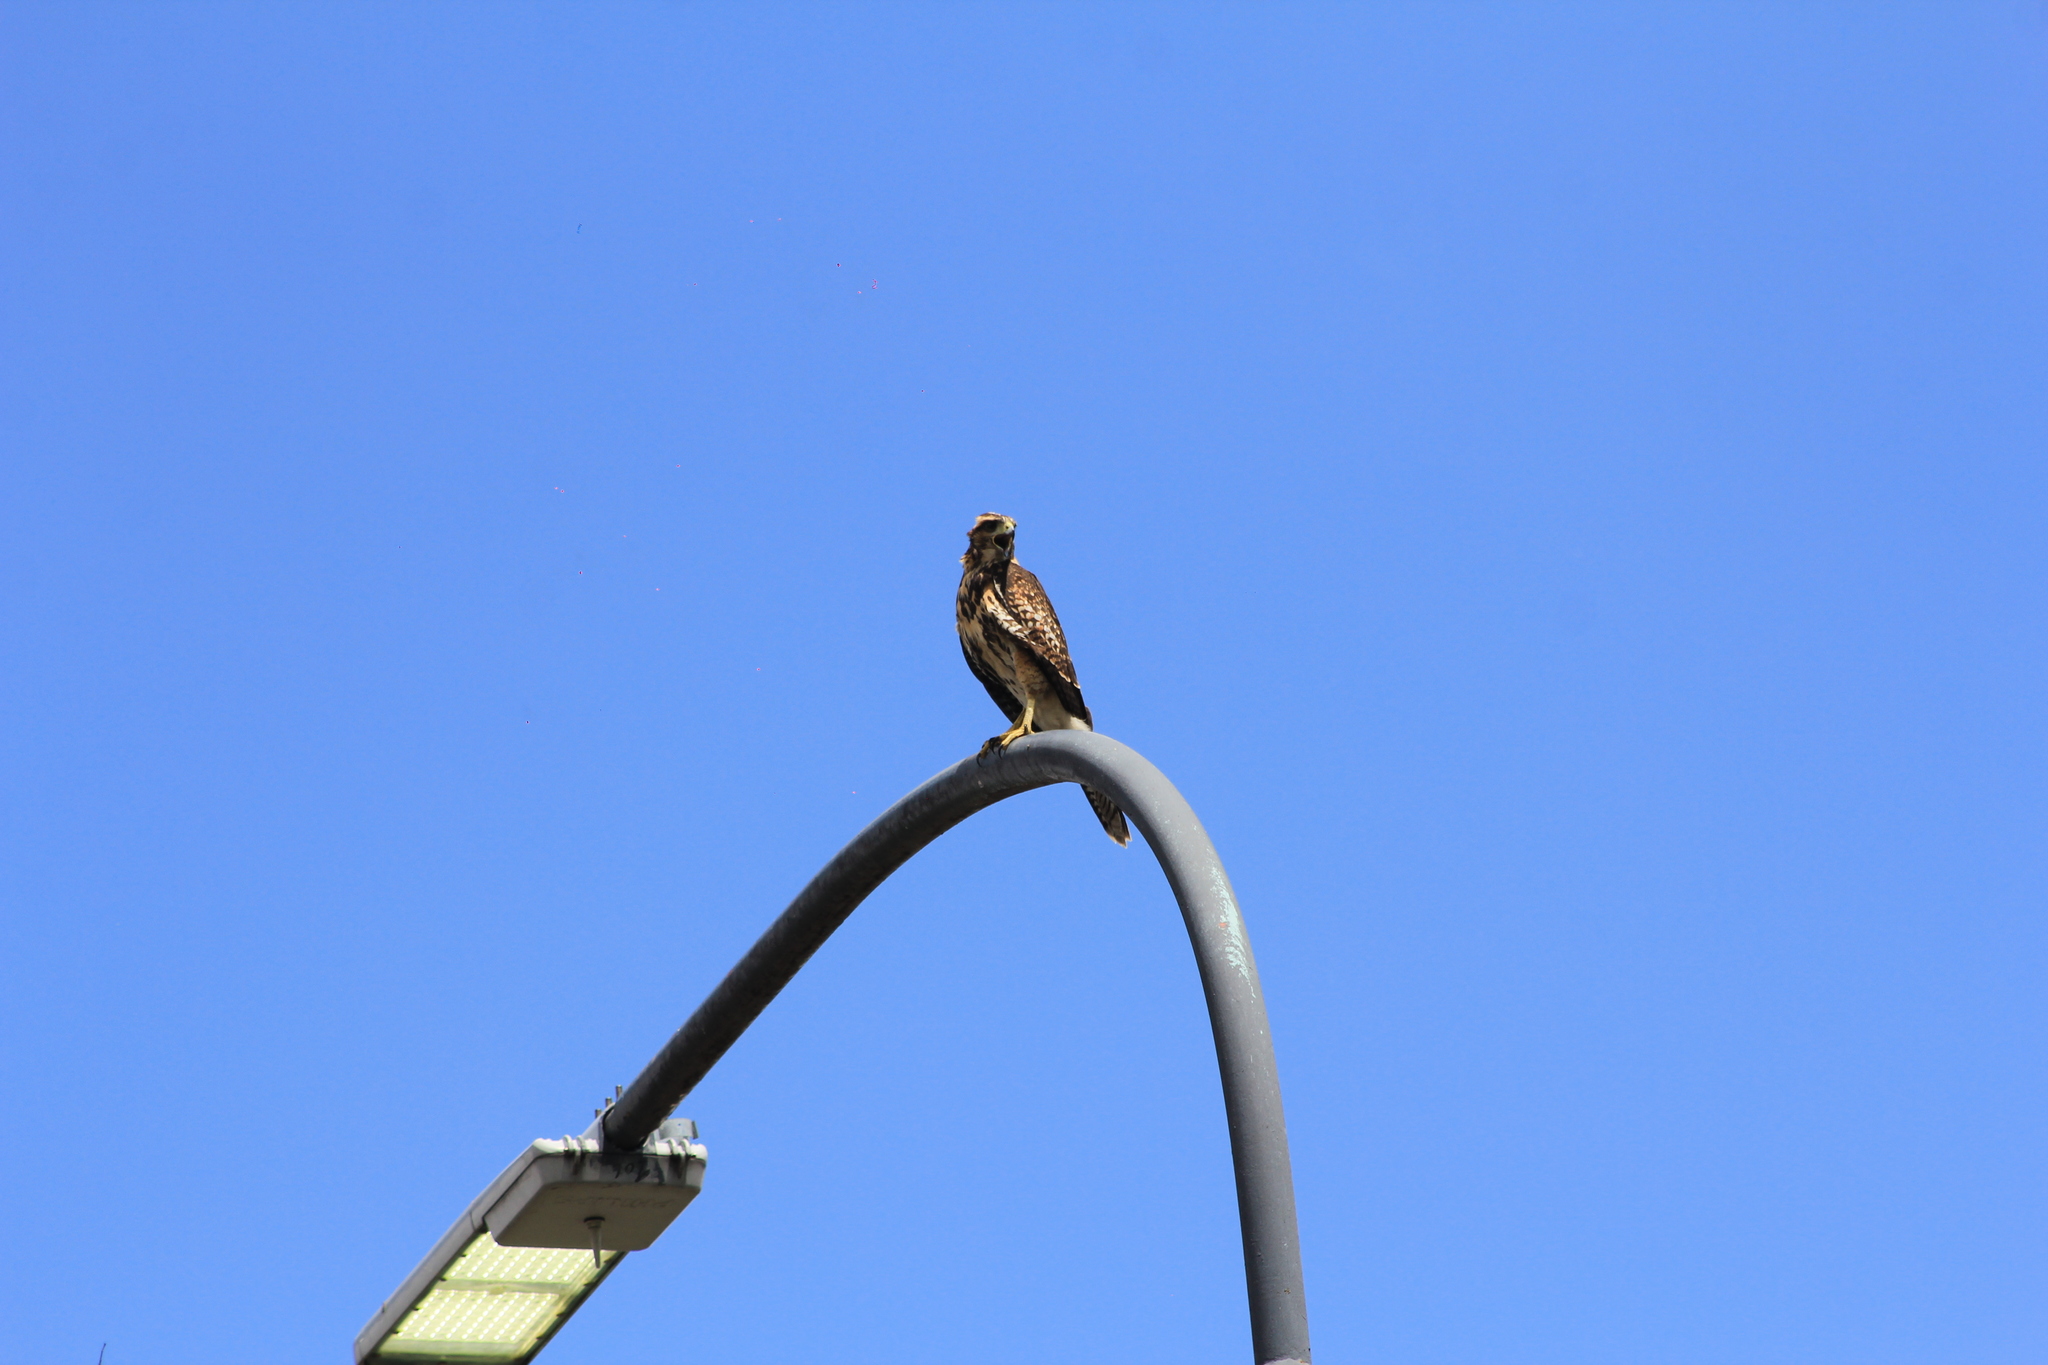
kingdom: Animalia
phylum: Chordata
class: Aves
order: Accipitriformes
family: Accipitridae
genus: Parabuteo
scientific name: Parabuteo unicinctus
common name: Harris's hawk
